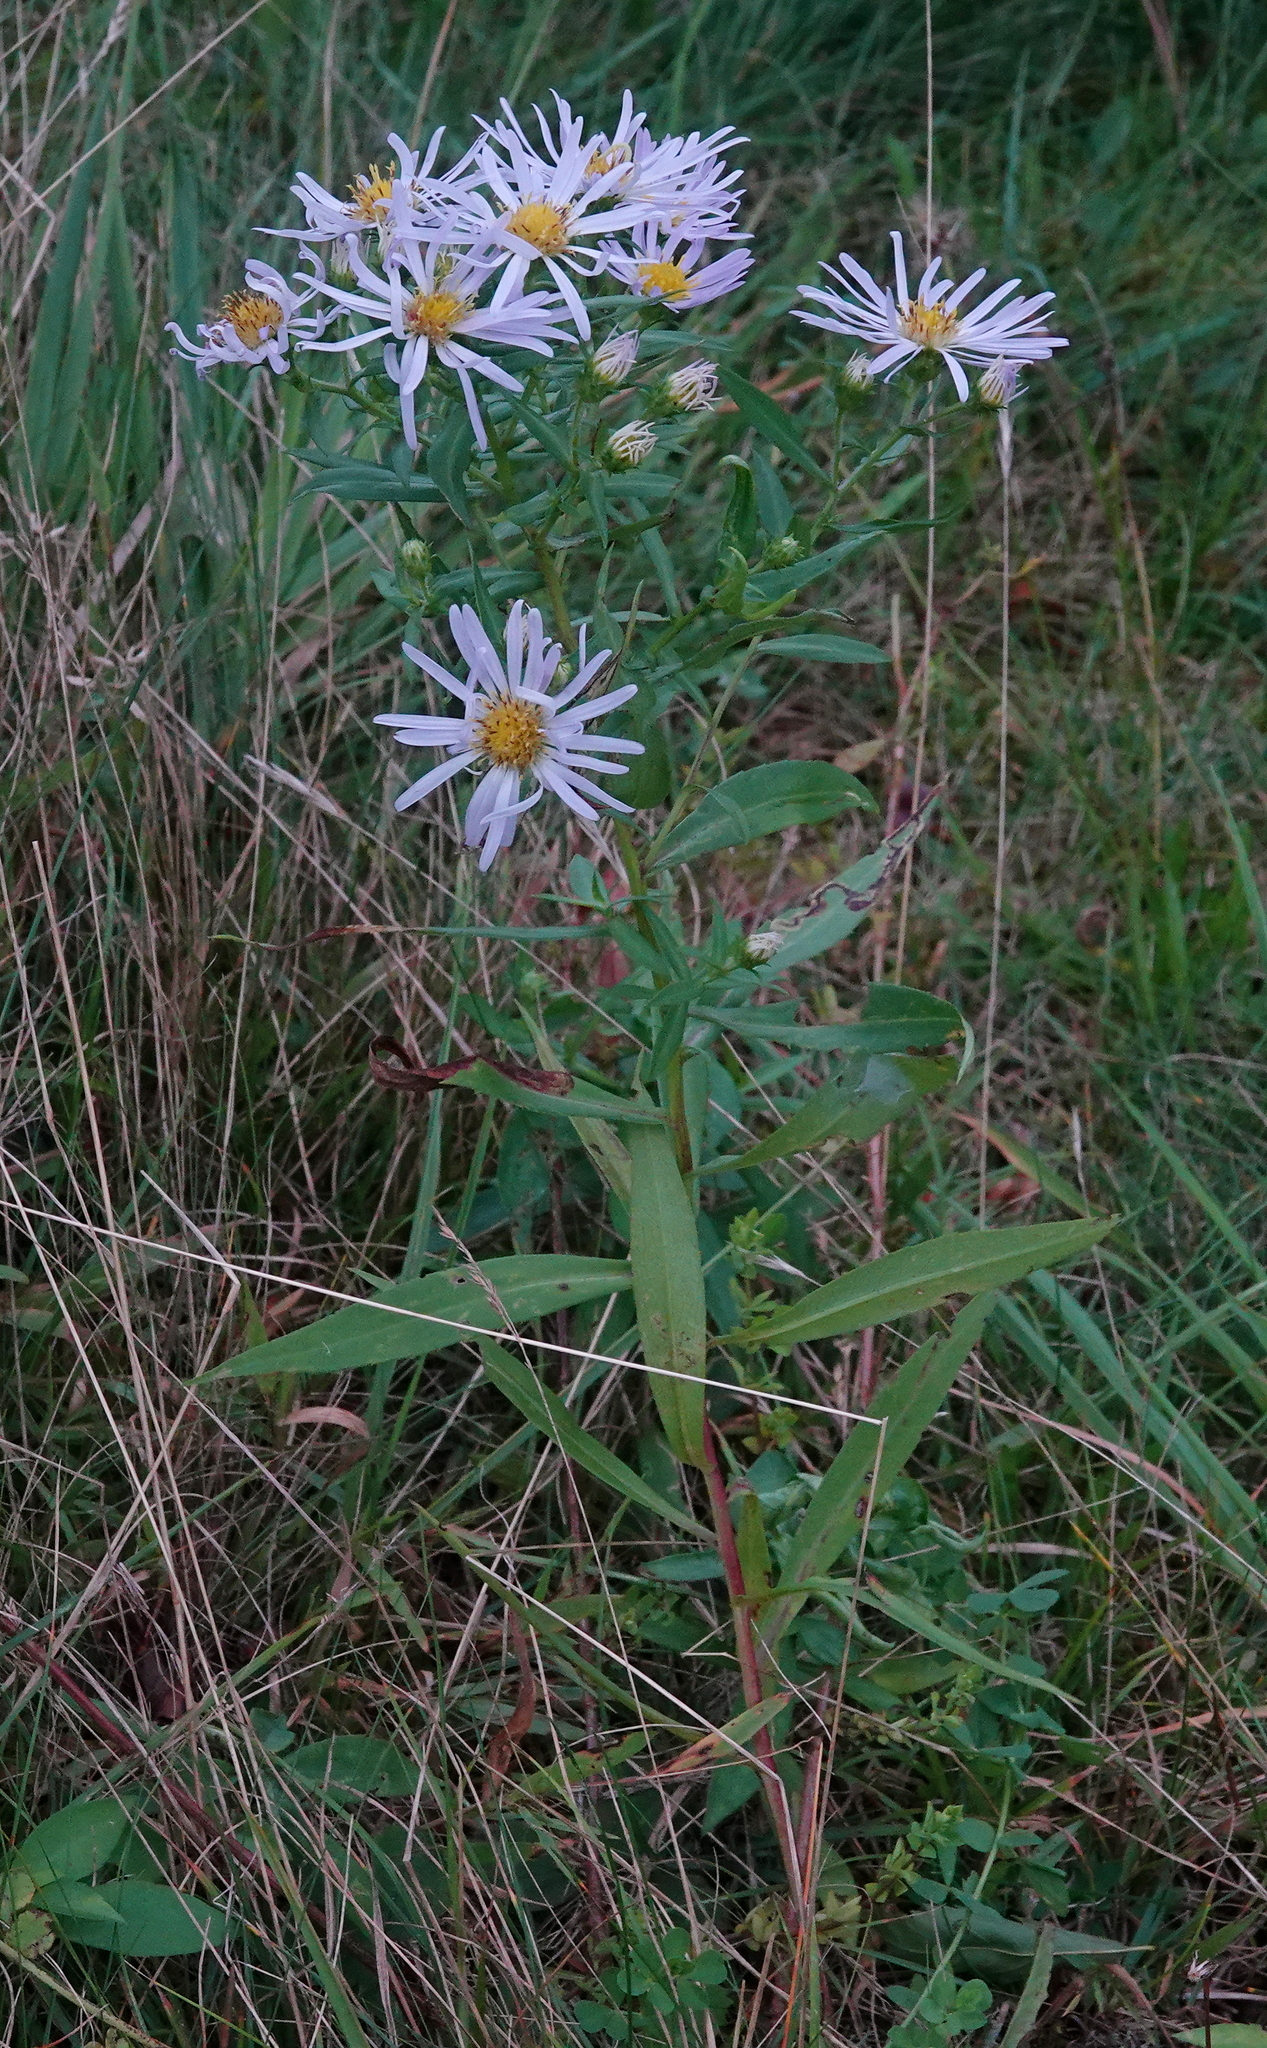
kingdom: Plantae
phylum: Tracheophyta
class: Magnoliopsida
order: Asterales
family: Asteraceae
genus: Symphyotrichum
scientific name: Symphyotrichum novi-belgii
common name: Michaelmas daisy
